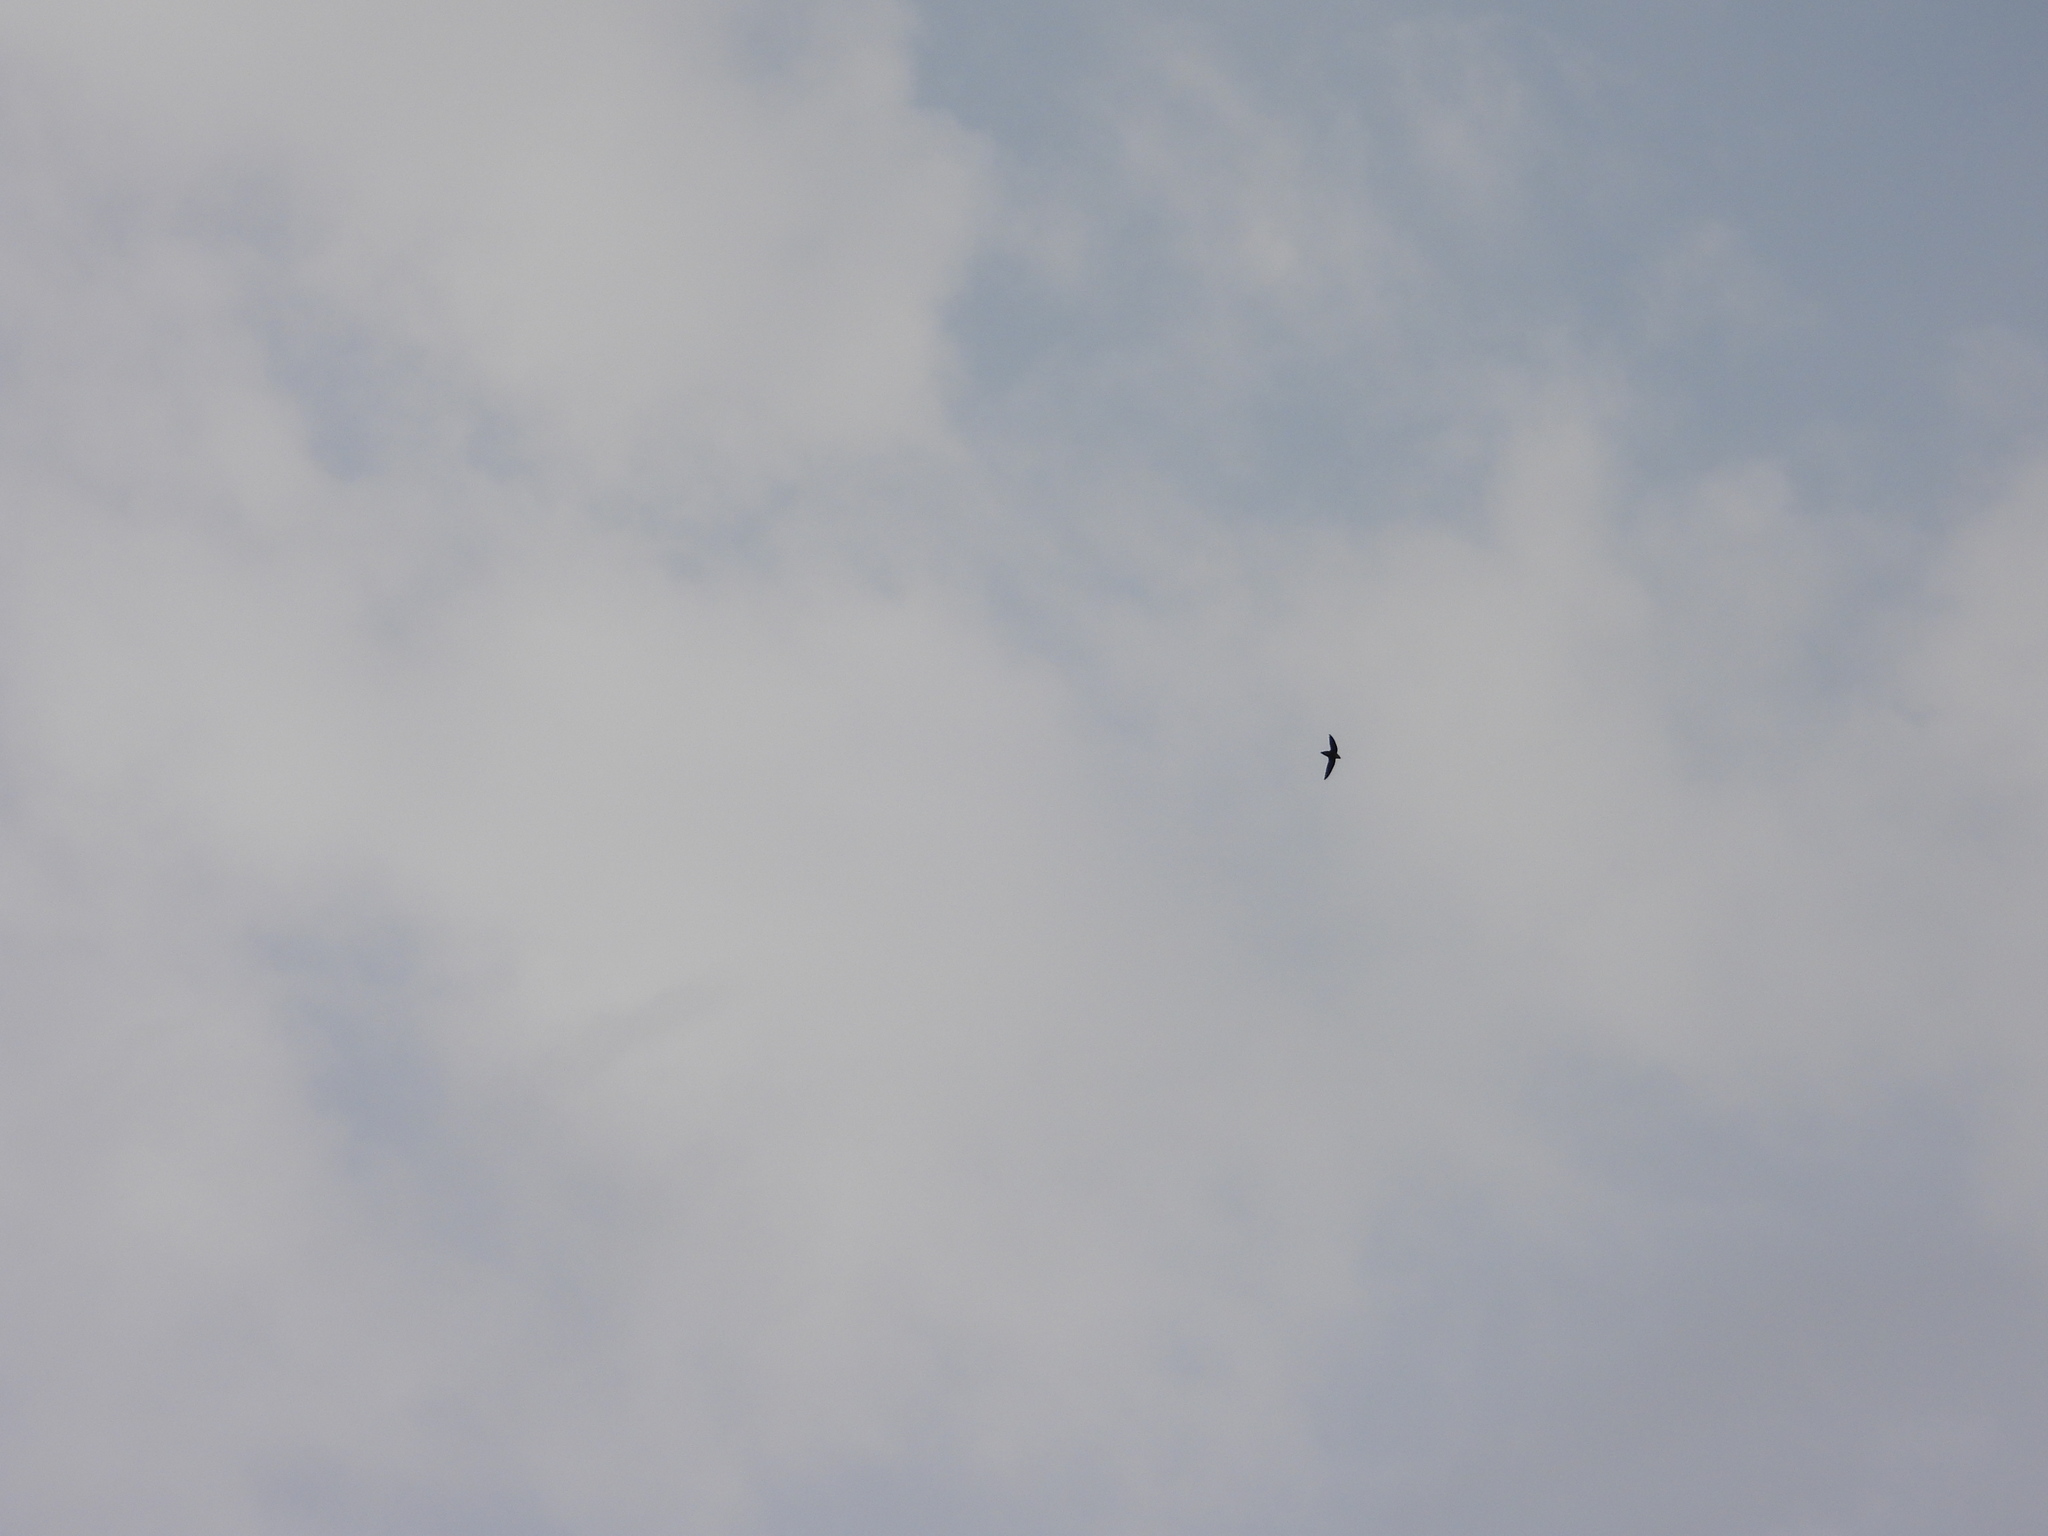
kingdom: Animalia
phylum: Chordata
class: Aves
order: Apodiformes
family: Apodidae
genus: Chaetura
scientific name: Chaetura pelagica
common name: Chimney swift
